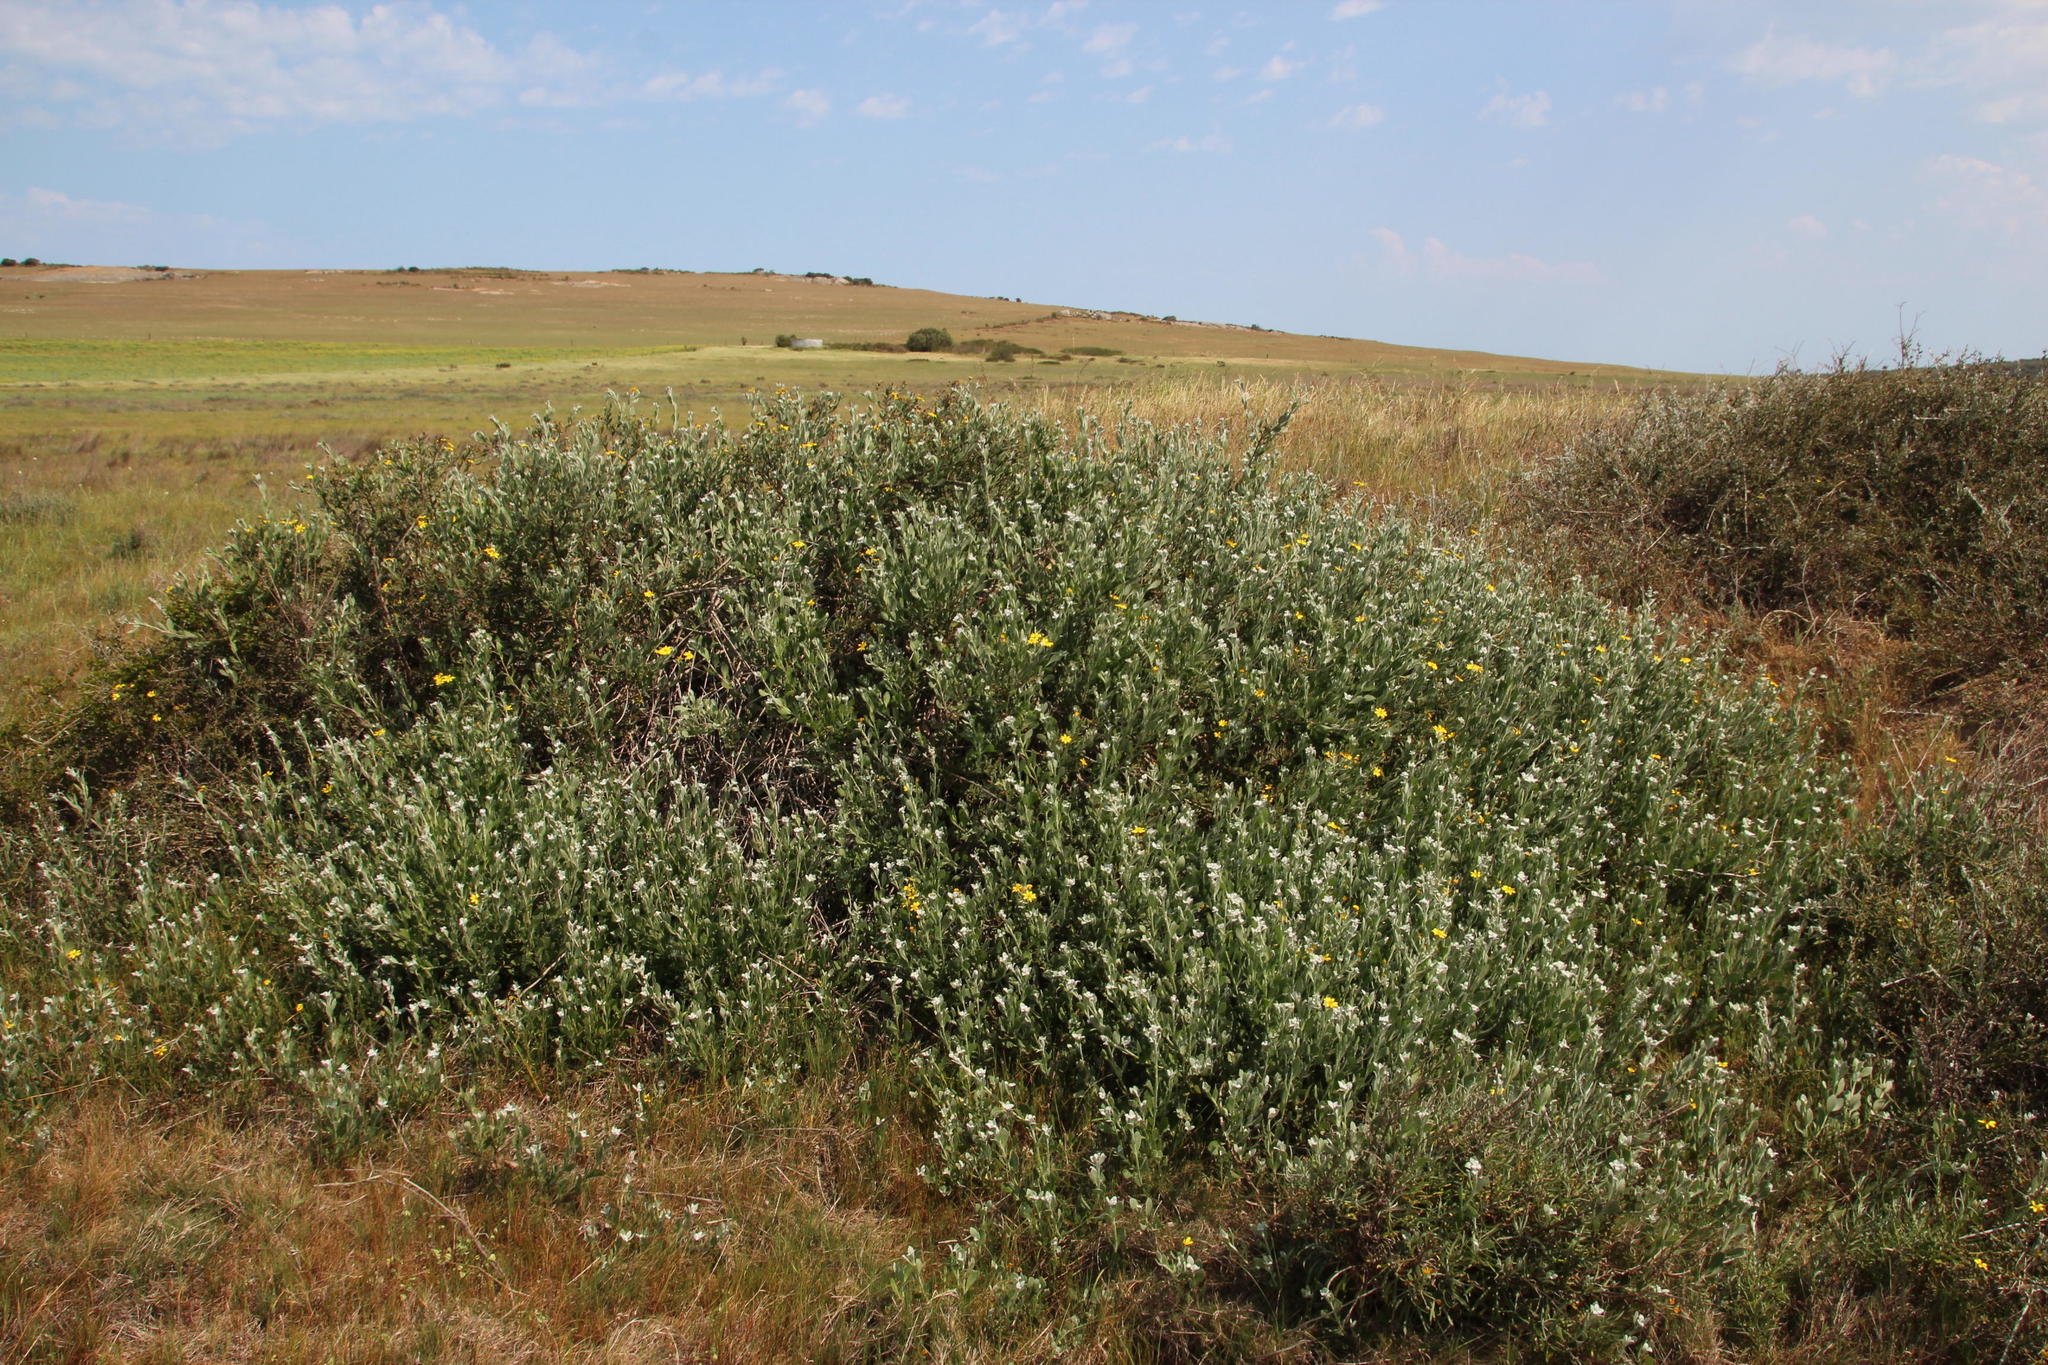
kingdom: Plantae
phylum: Tracheophyta
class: Magnoliopsida
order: Asterales
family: Asteraceae
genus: Osteospermum
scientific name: Osteospermum moniliferum
